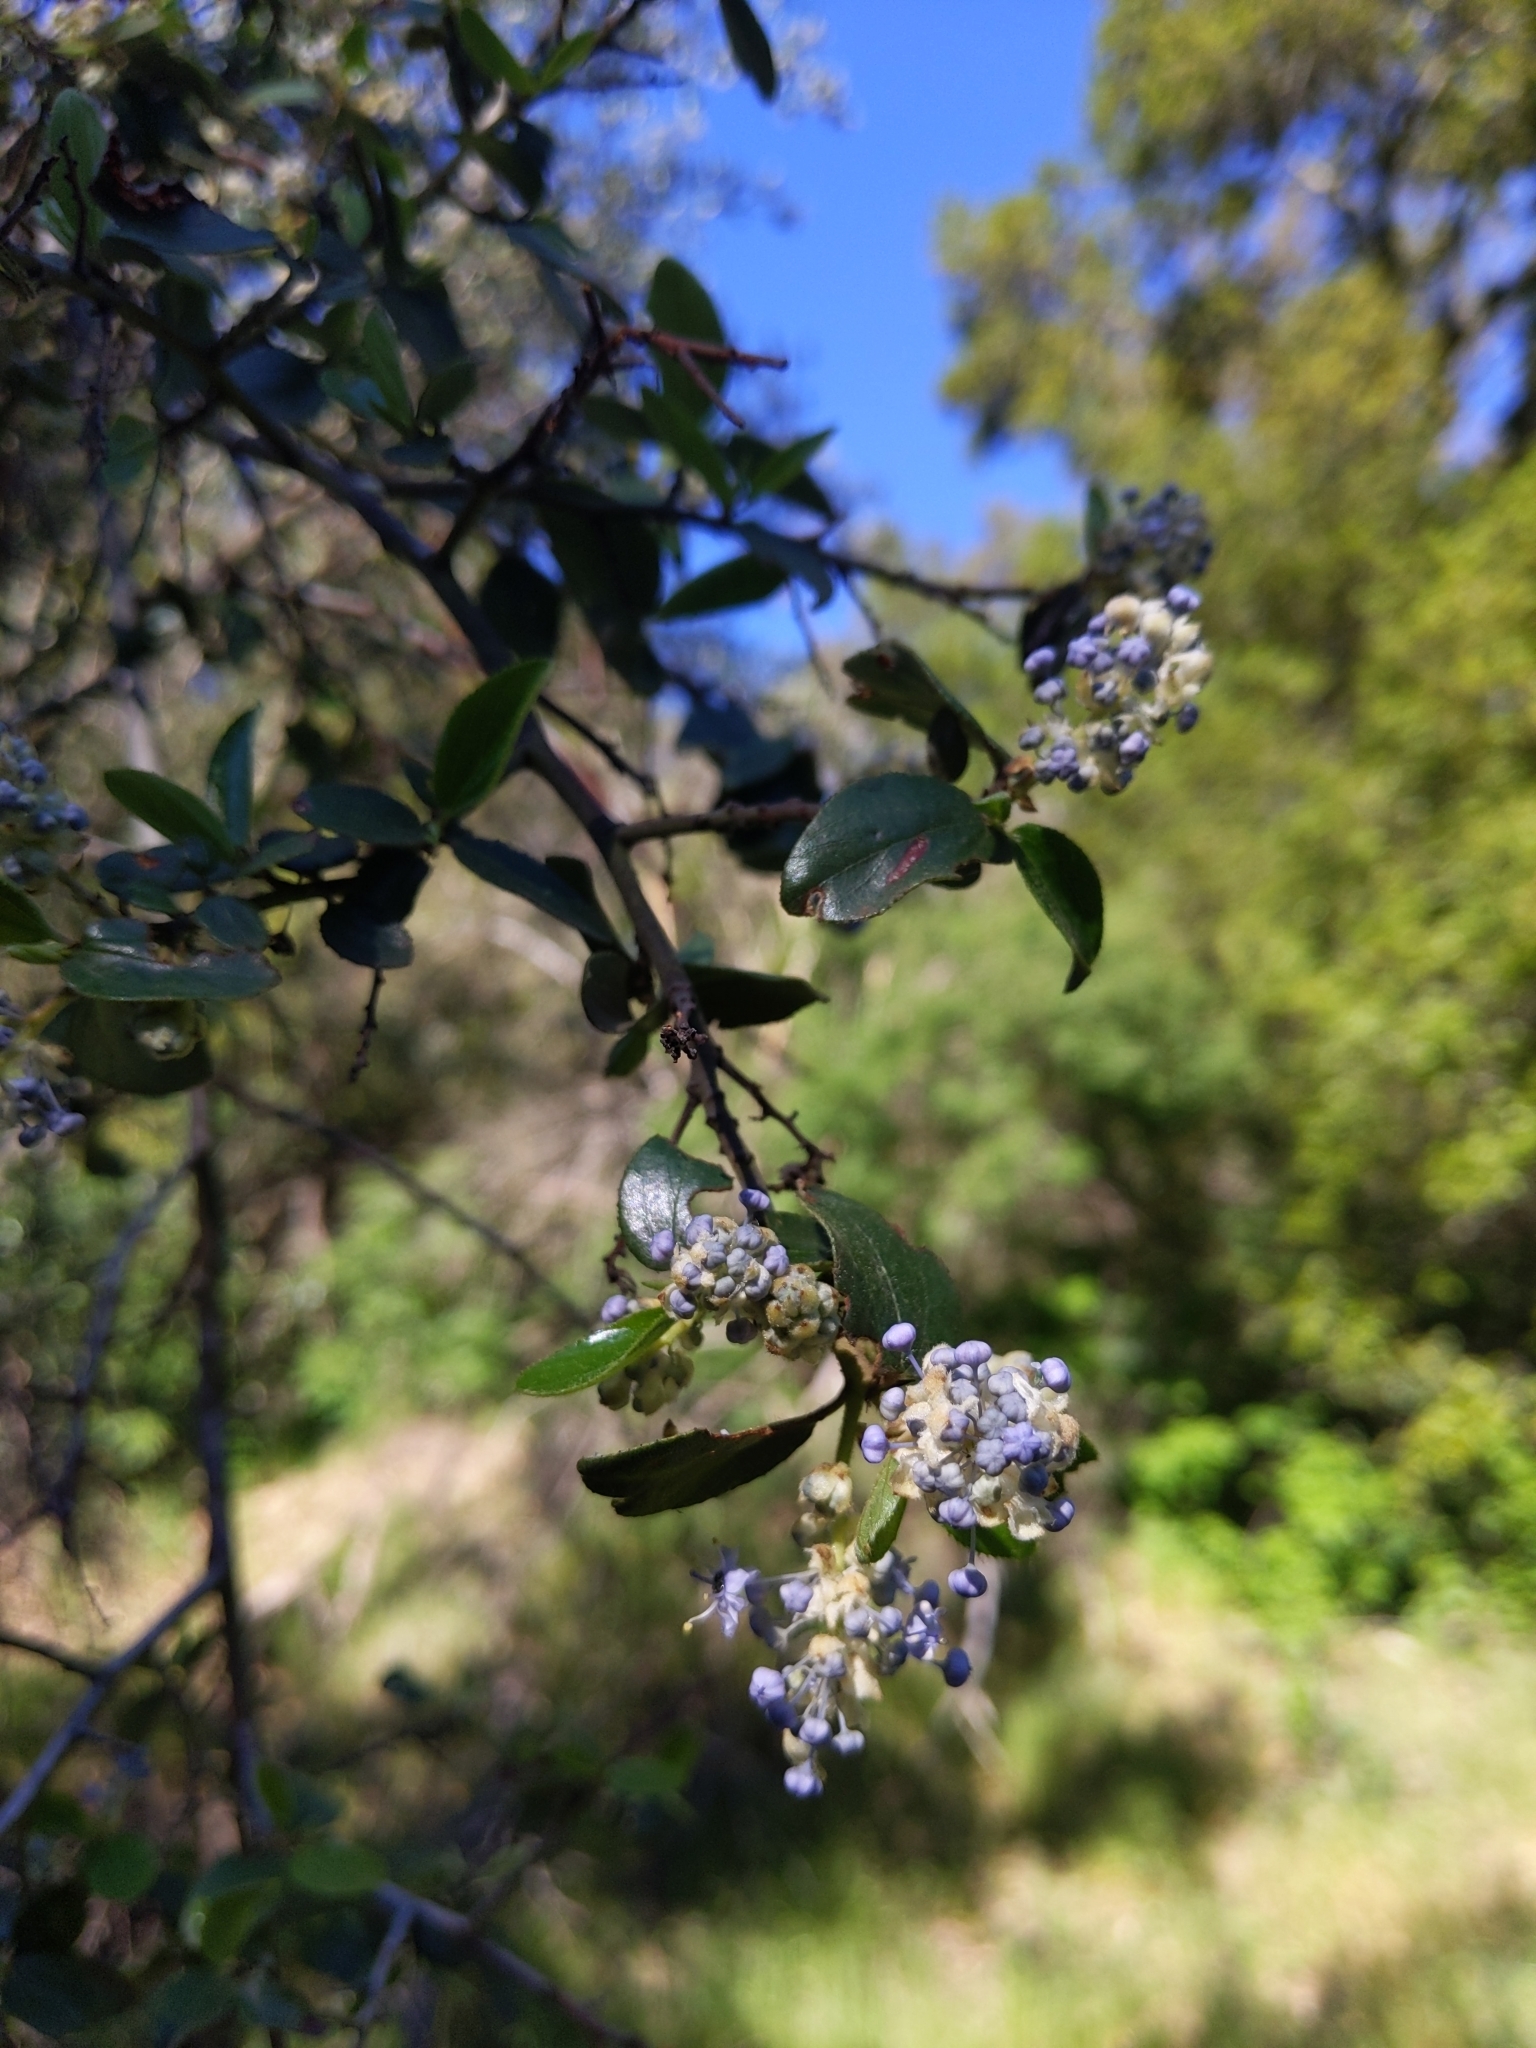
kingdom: Plantae
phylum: Tracheophyta
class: Magnoliopsida
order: Rosales
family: Rhamnaceae
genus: Ceanothus
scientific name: Ceanothus oliganthus
